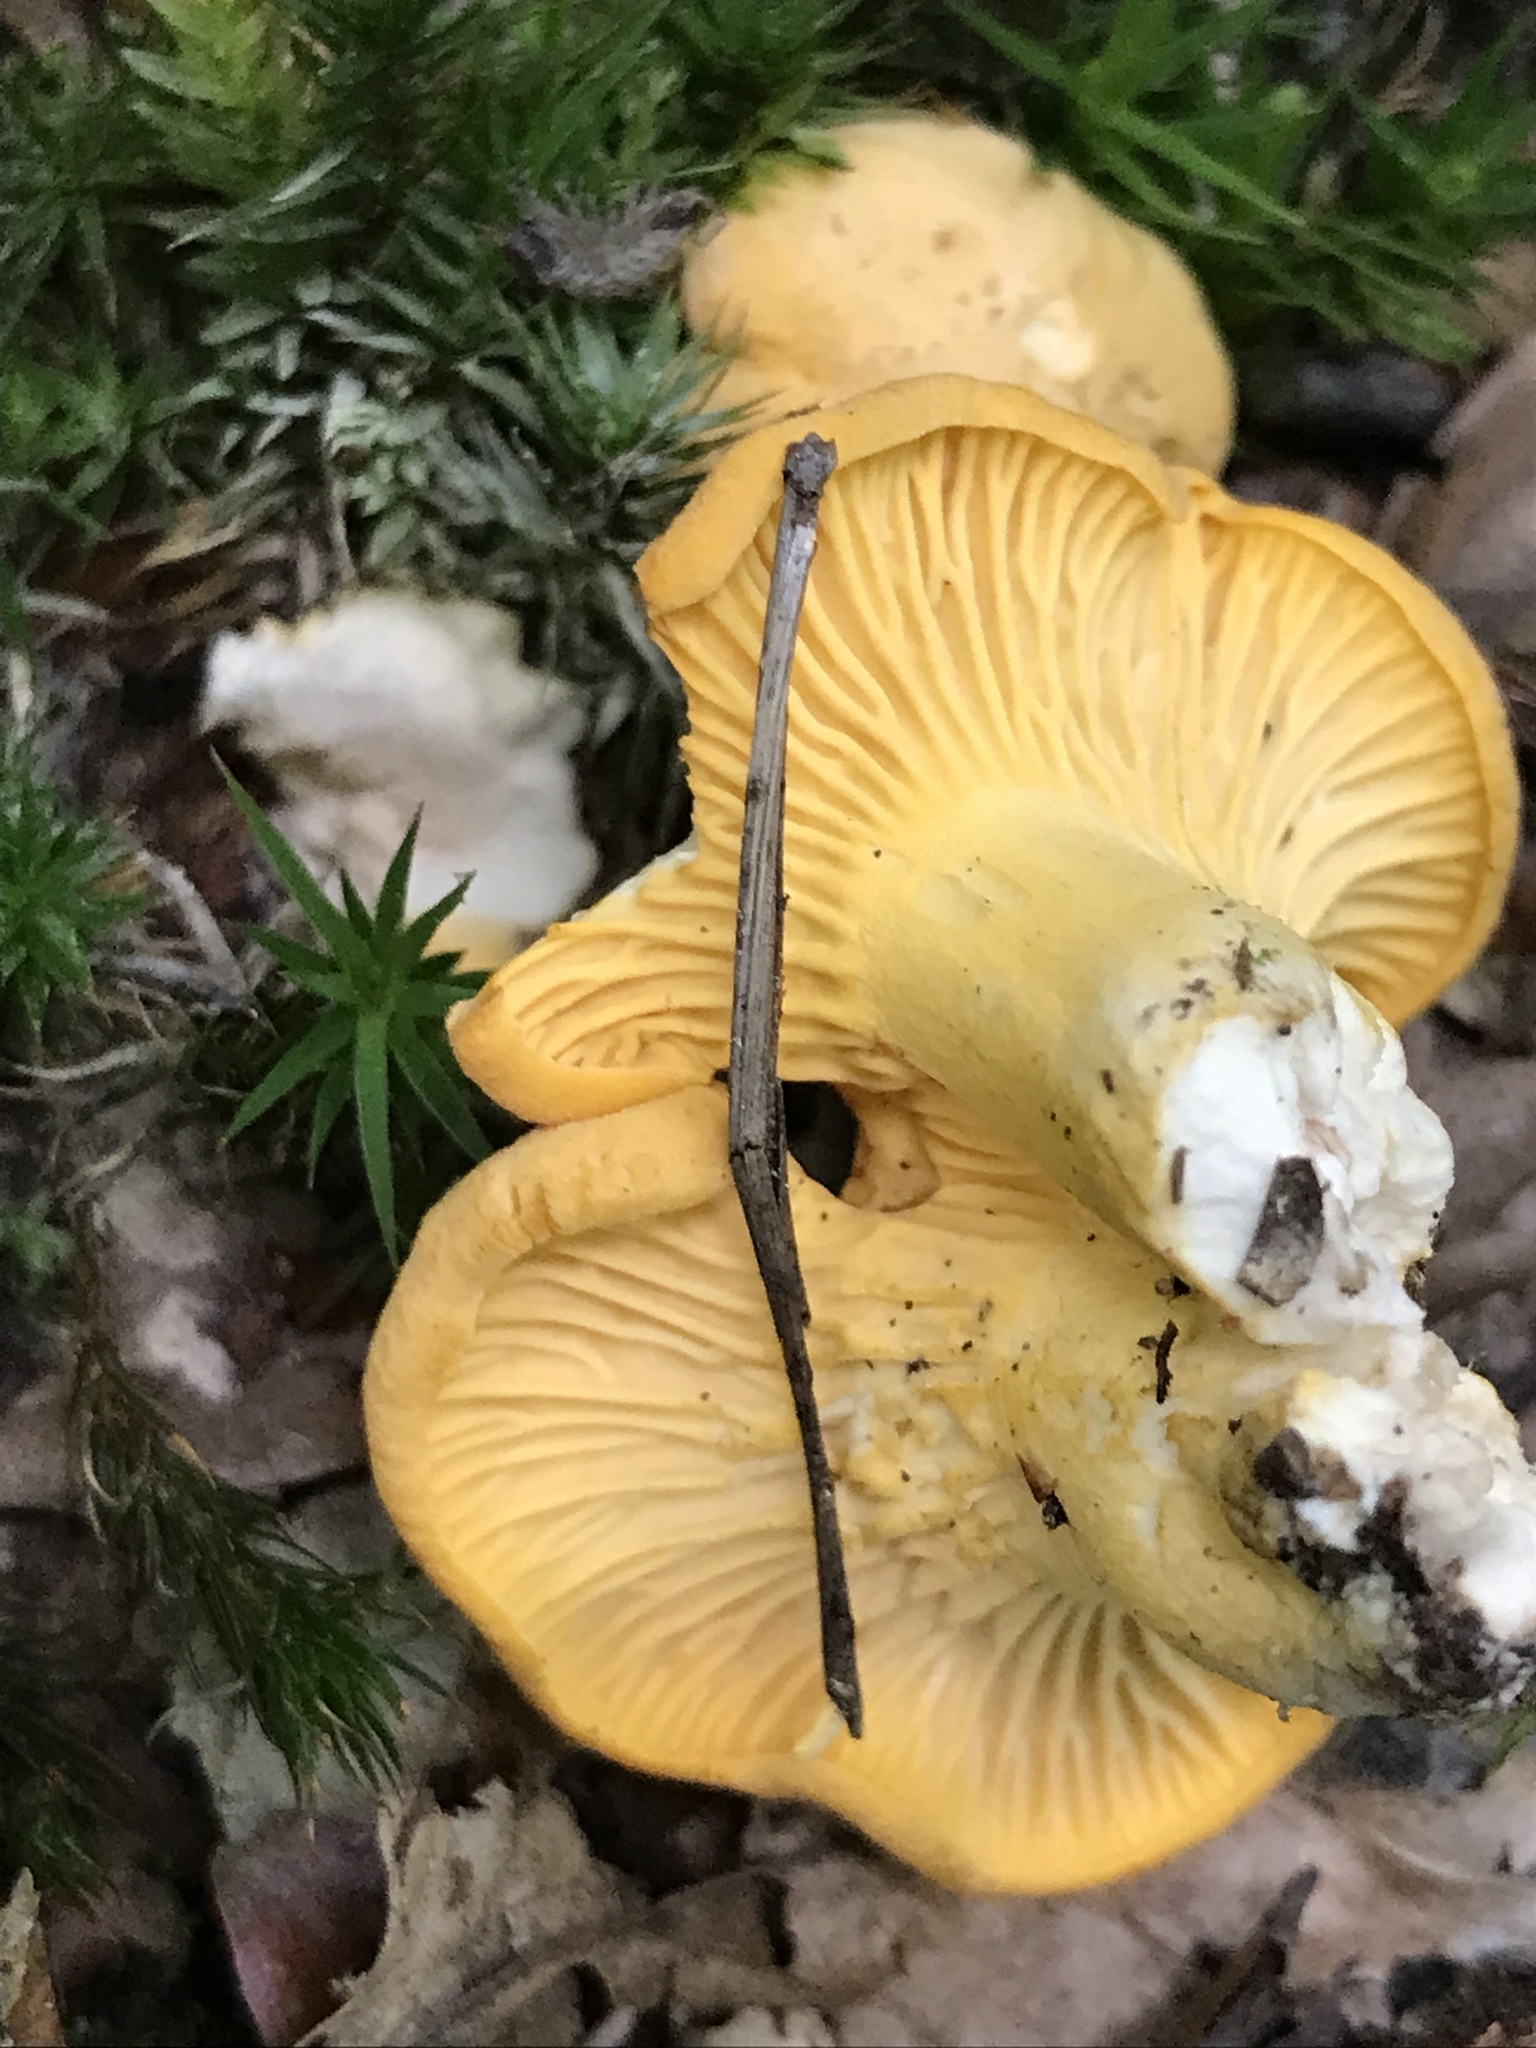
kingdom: Fungi
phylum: Basidiomycota
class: Agaricomycetes
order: Cantharellales
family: Hydnaceae
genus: Cantharellus
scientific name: Cantharellus cibarius
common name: Chanterelle
